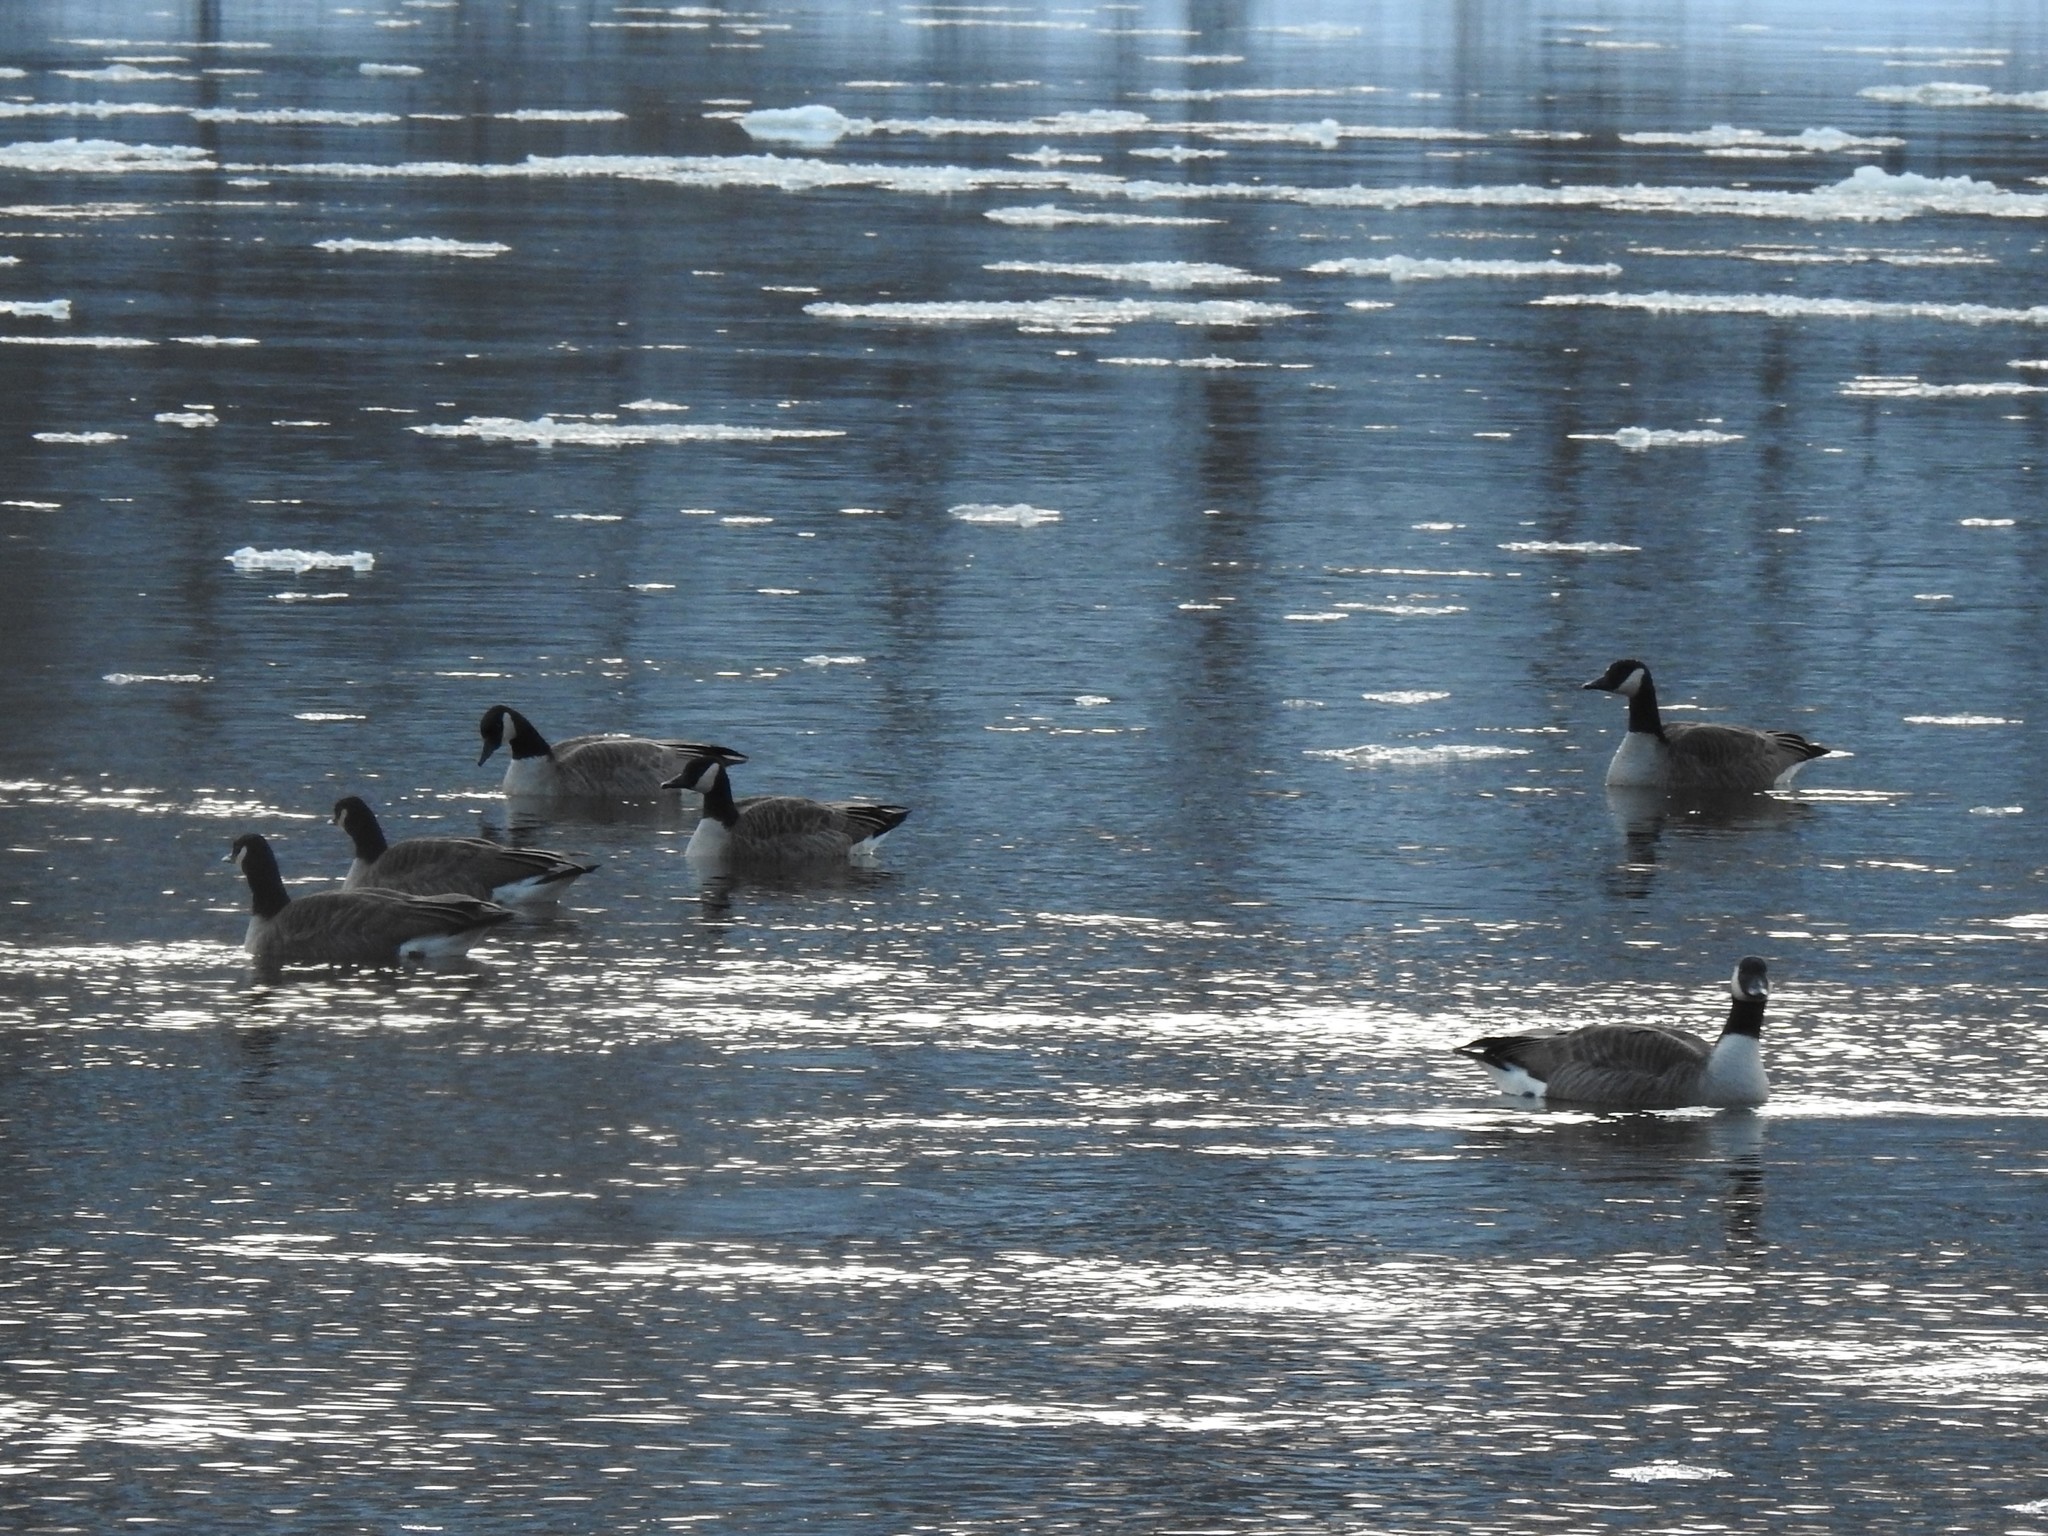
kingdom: Animalia
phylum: Chordata
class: Aves
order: Anseriformes
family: Anatidae
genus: Branta
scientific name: Branta canadensis
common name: Canada goose
